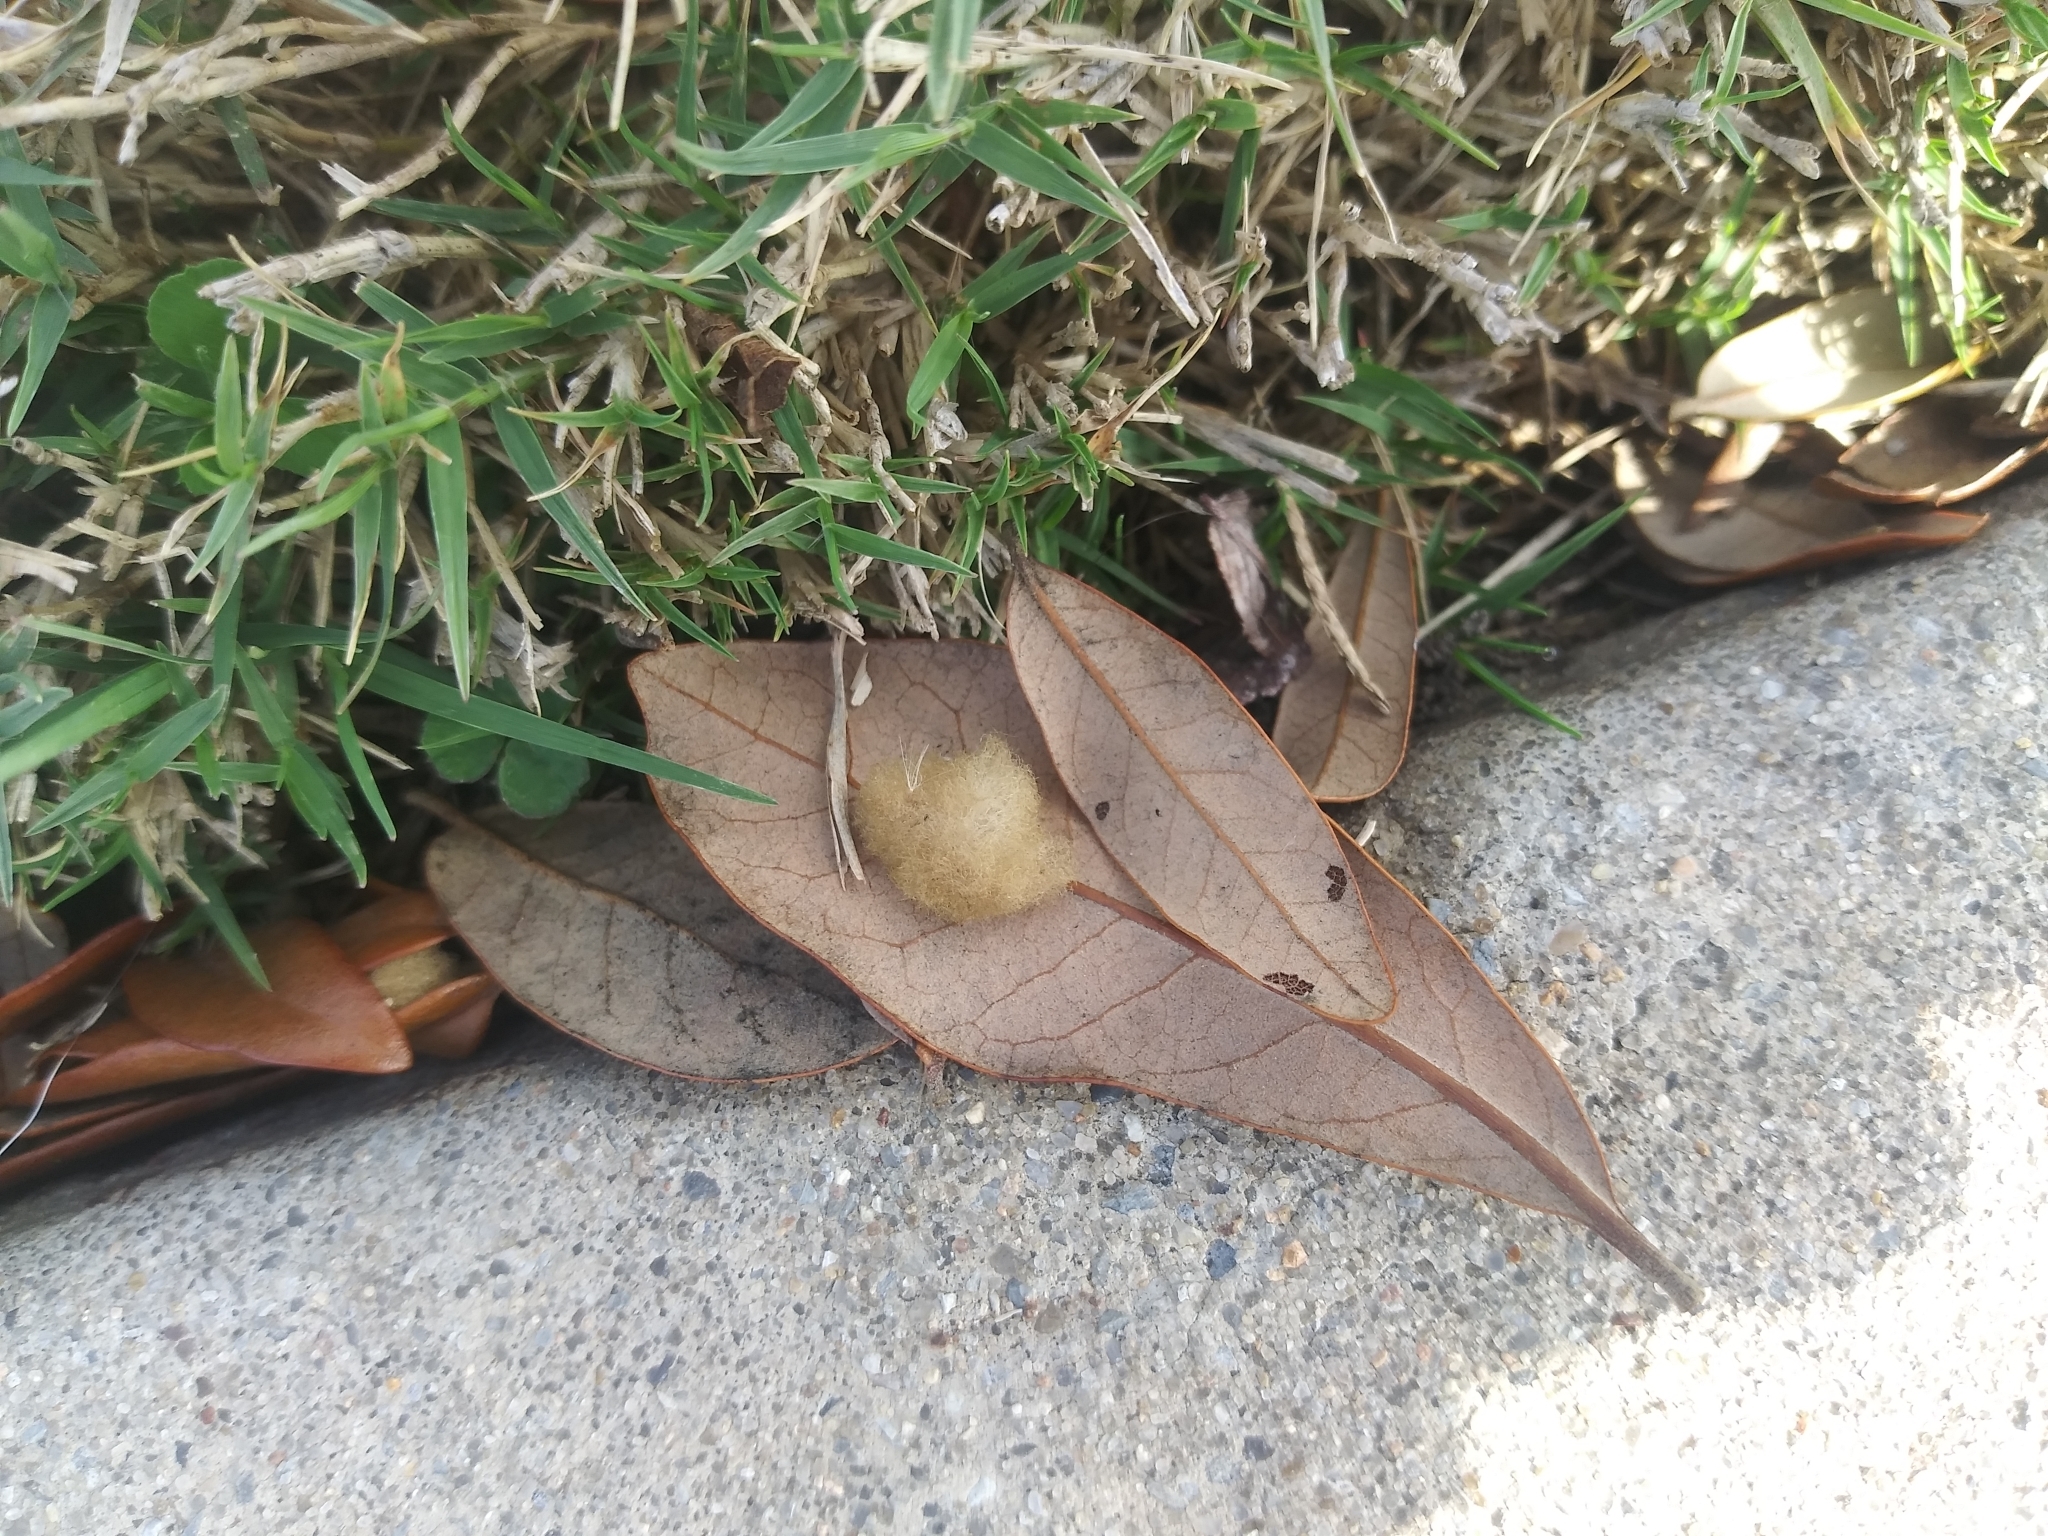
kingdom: Animalia
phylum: Arthropoda
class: Insecta
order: Hymenoptera
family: Cynipidae
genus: Andricus
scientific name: Andricus Druon quercuslanigerum
